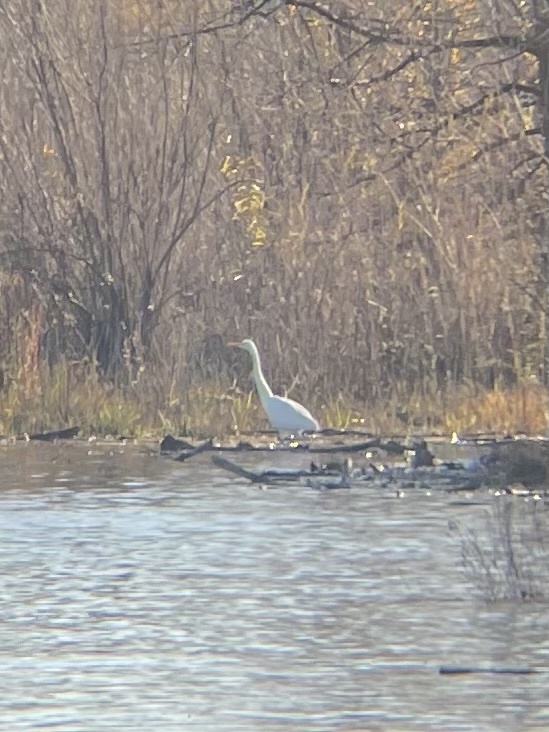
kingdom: Animalia
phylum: Chordata
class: Aves
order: Pelecaniformes
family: Ardeidae
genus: Ardea
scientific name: Ardea alba
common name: Great egret
